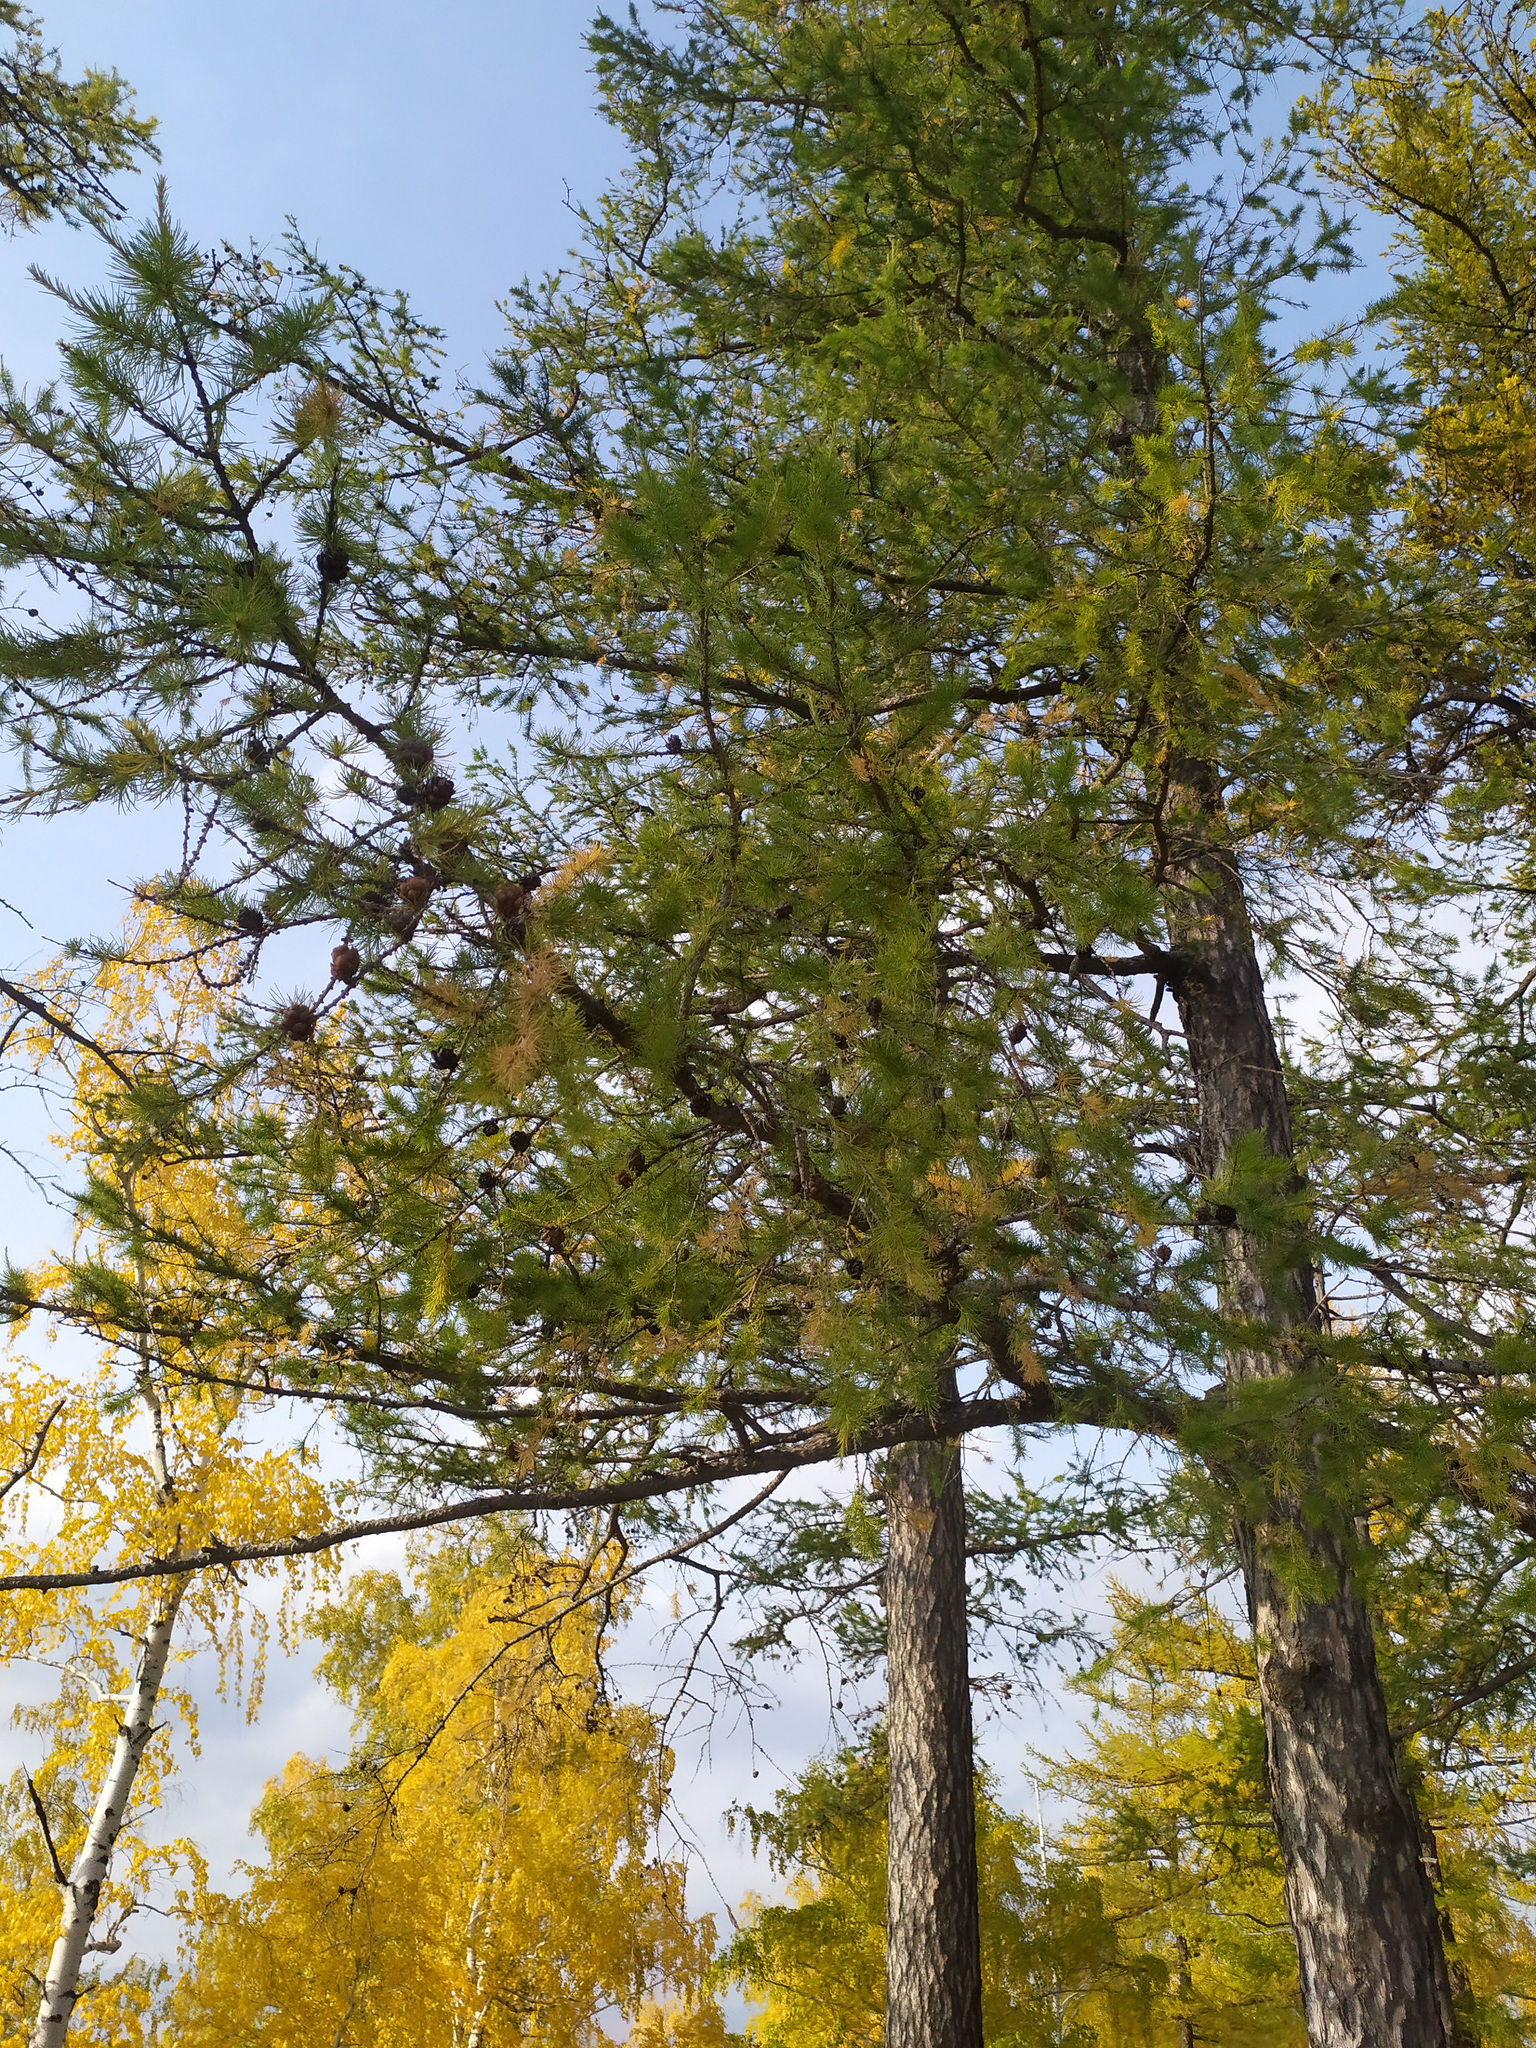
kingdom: Plantae
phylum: Tracheophyta
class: Pinopsida
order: Pinales
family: Pinaceae
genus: Larix
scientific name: Larix sibirica
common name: Siberian larch
